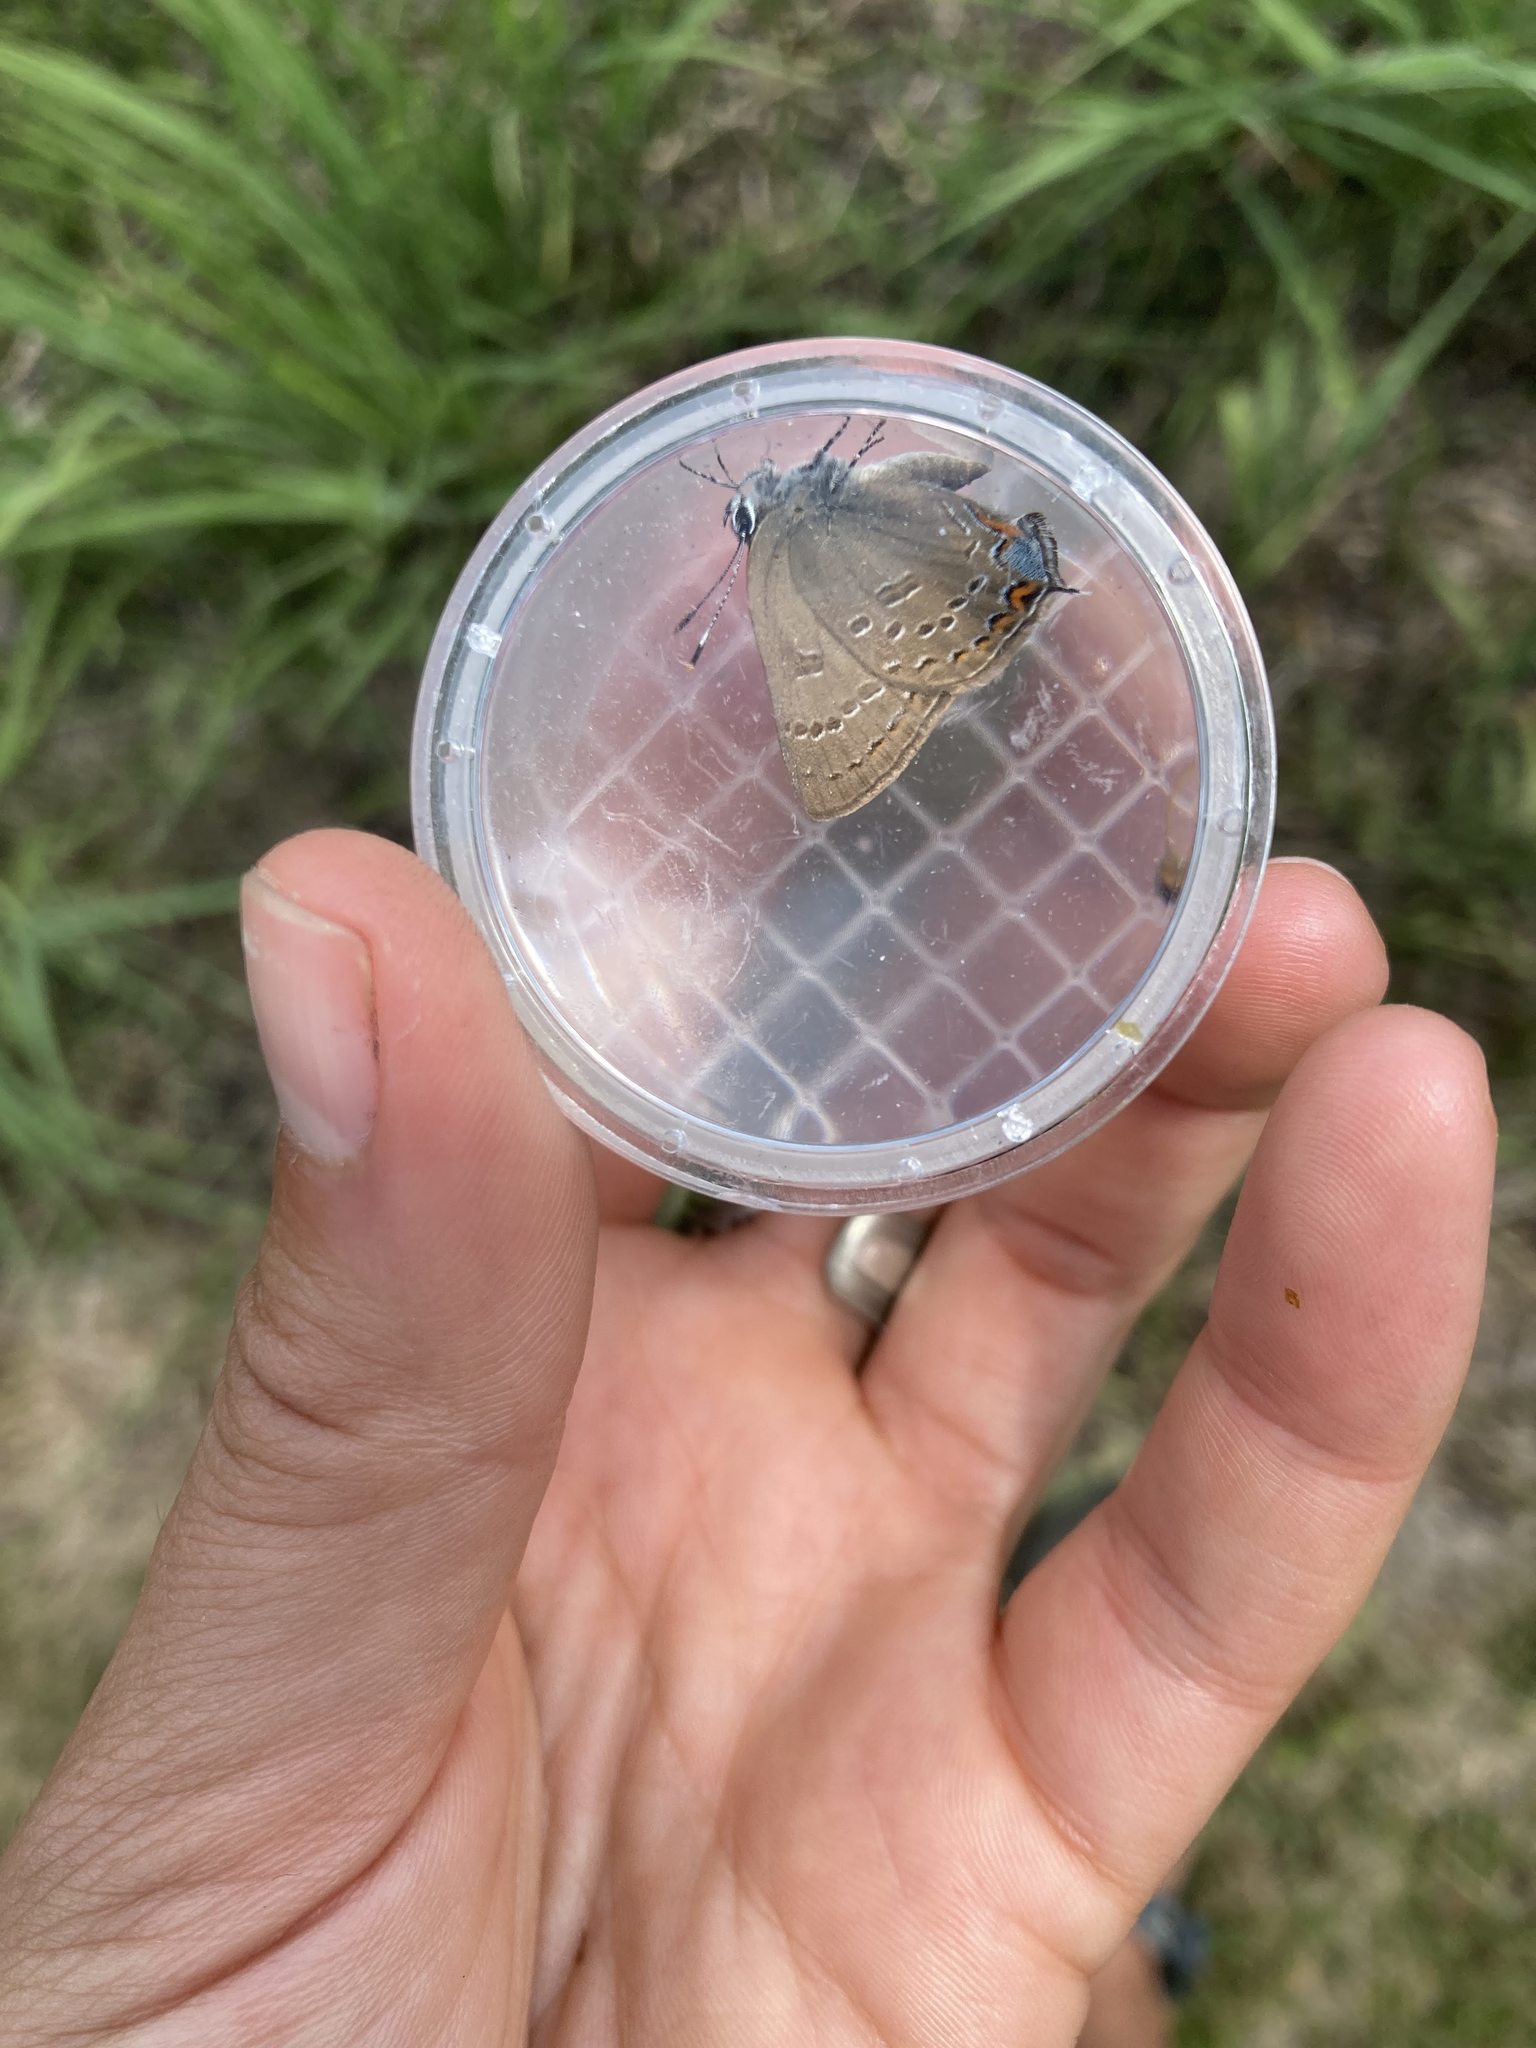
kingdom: Animalia
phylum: Arthropoda
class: Insecta
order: Lepidoptera
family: Lycaenidae
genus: Satyrium
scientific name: Satyrium calanus
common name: Banded hairstreak
